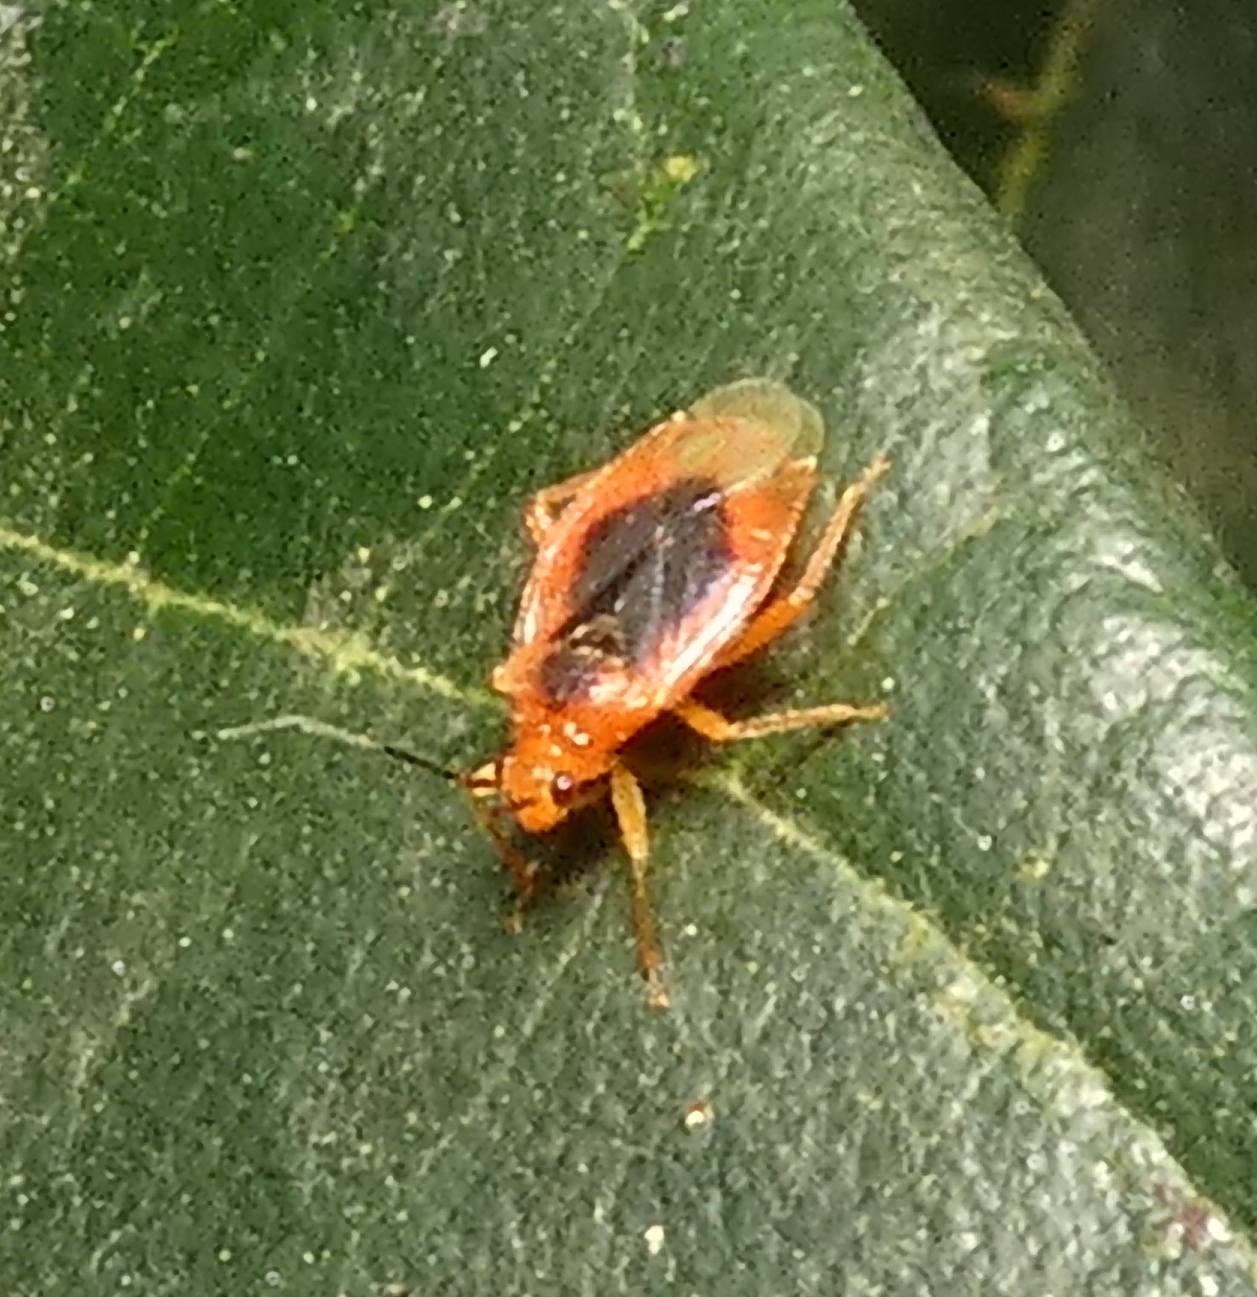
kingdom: Animalia
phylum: Arthropoda
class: Insecta
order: Hemiptera
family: Miridae
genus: Parafurius
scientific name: Parafurius discifer
